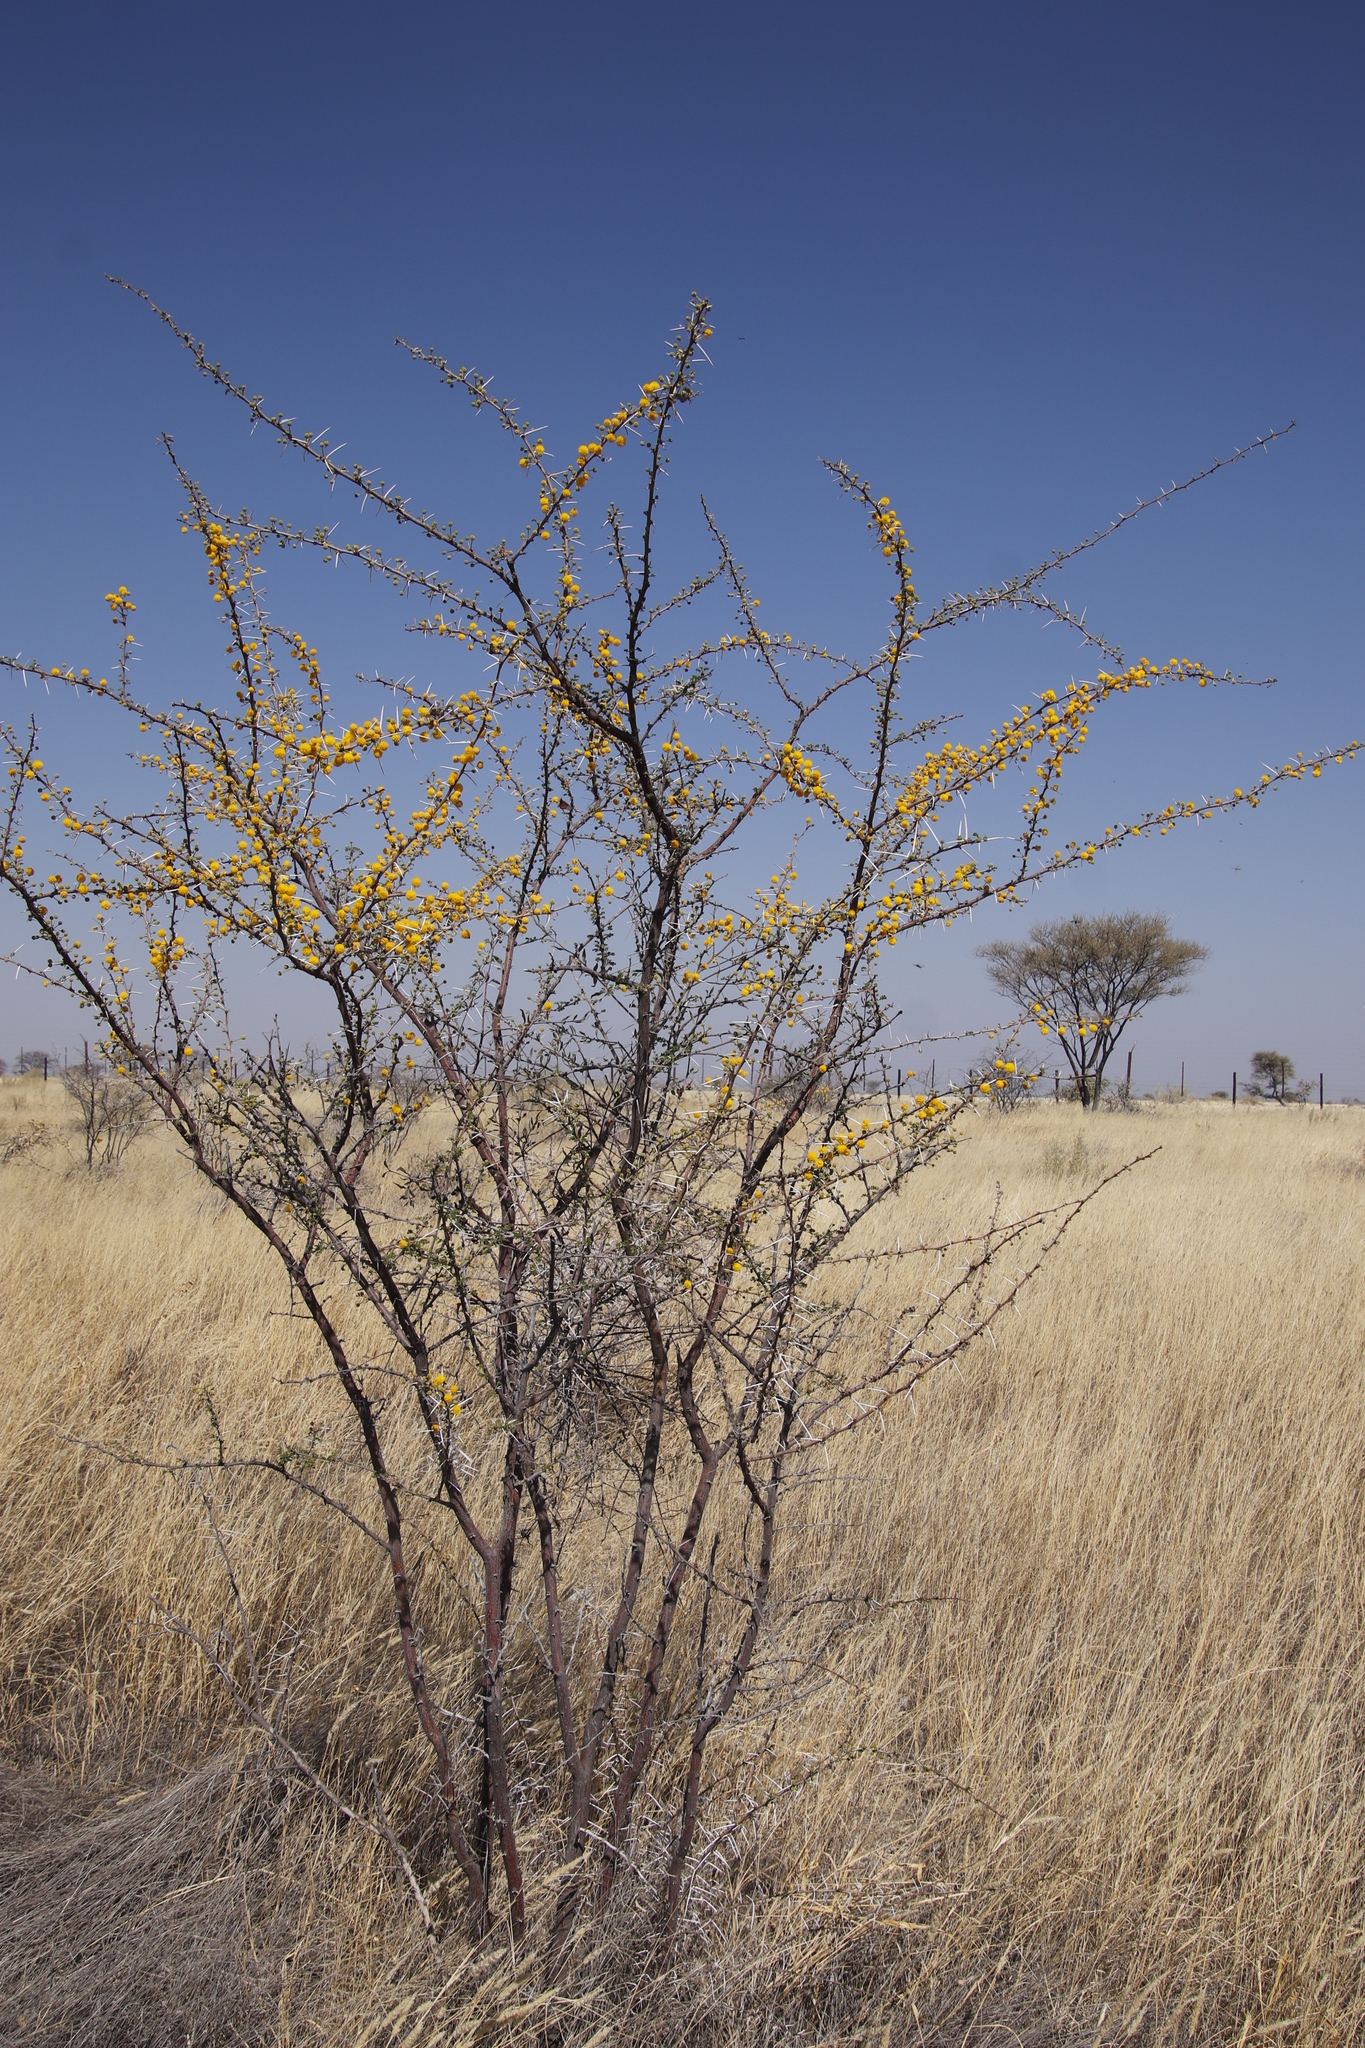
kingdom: Plantae
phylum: Tracheophyta
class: Magnoliopsida
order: Fabales
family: Fabaceae
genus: Vachellia
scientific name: Vachellia nebrownii
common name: Water acacia
